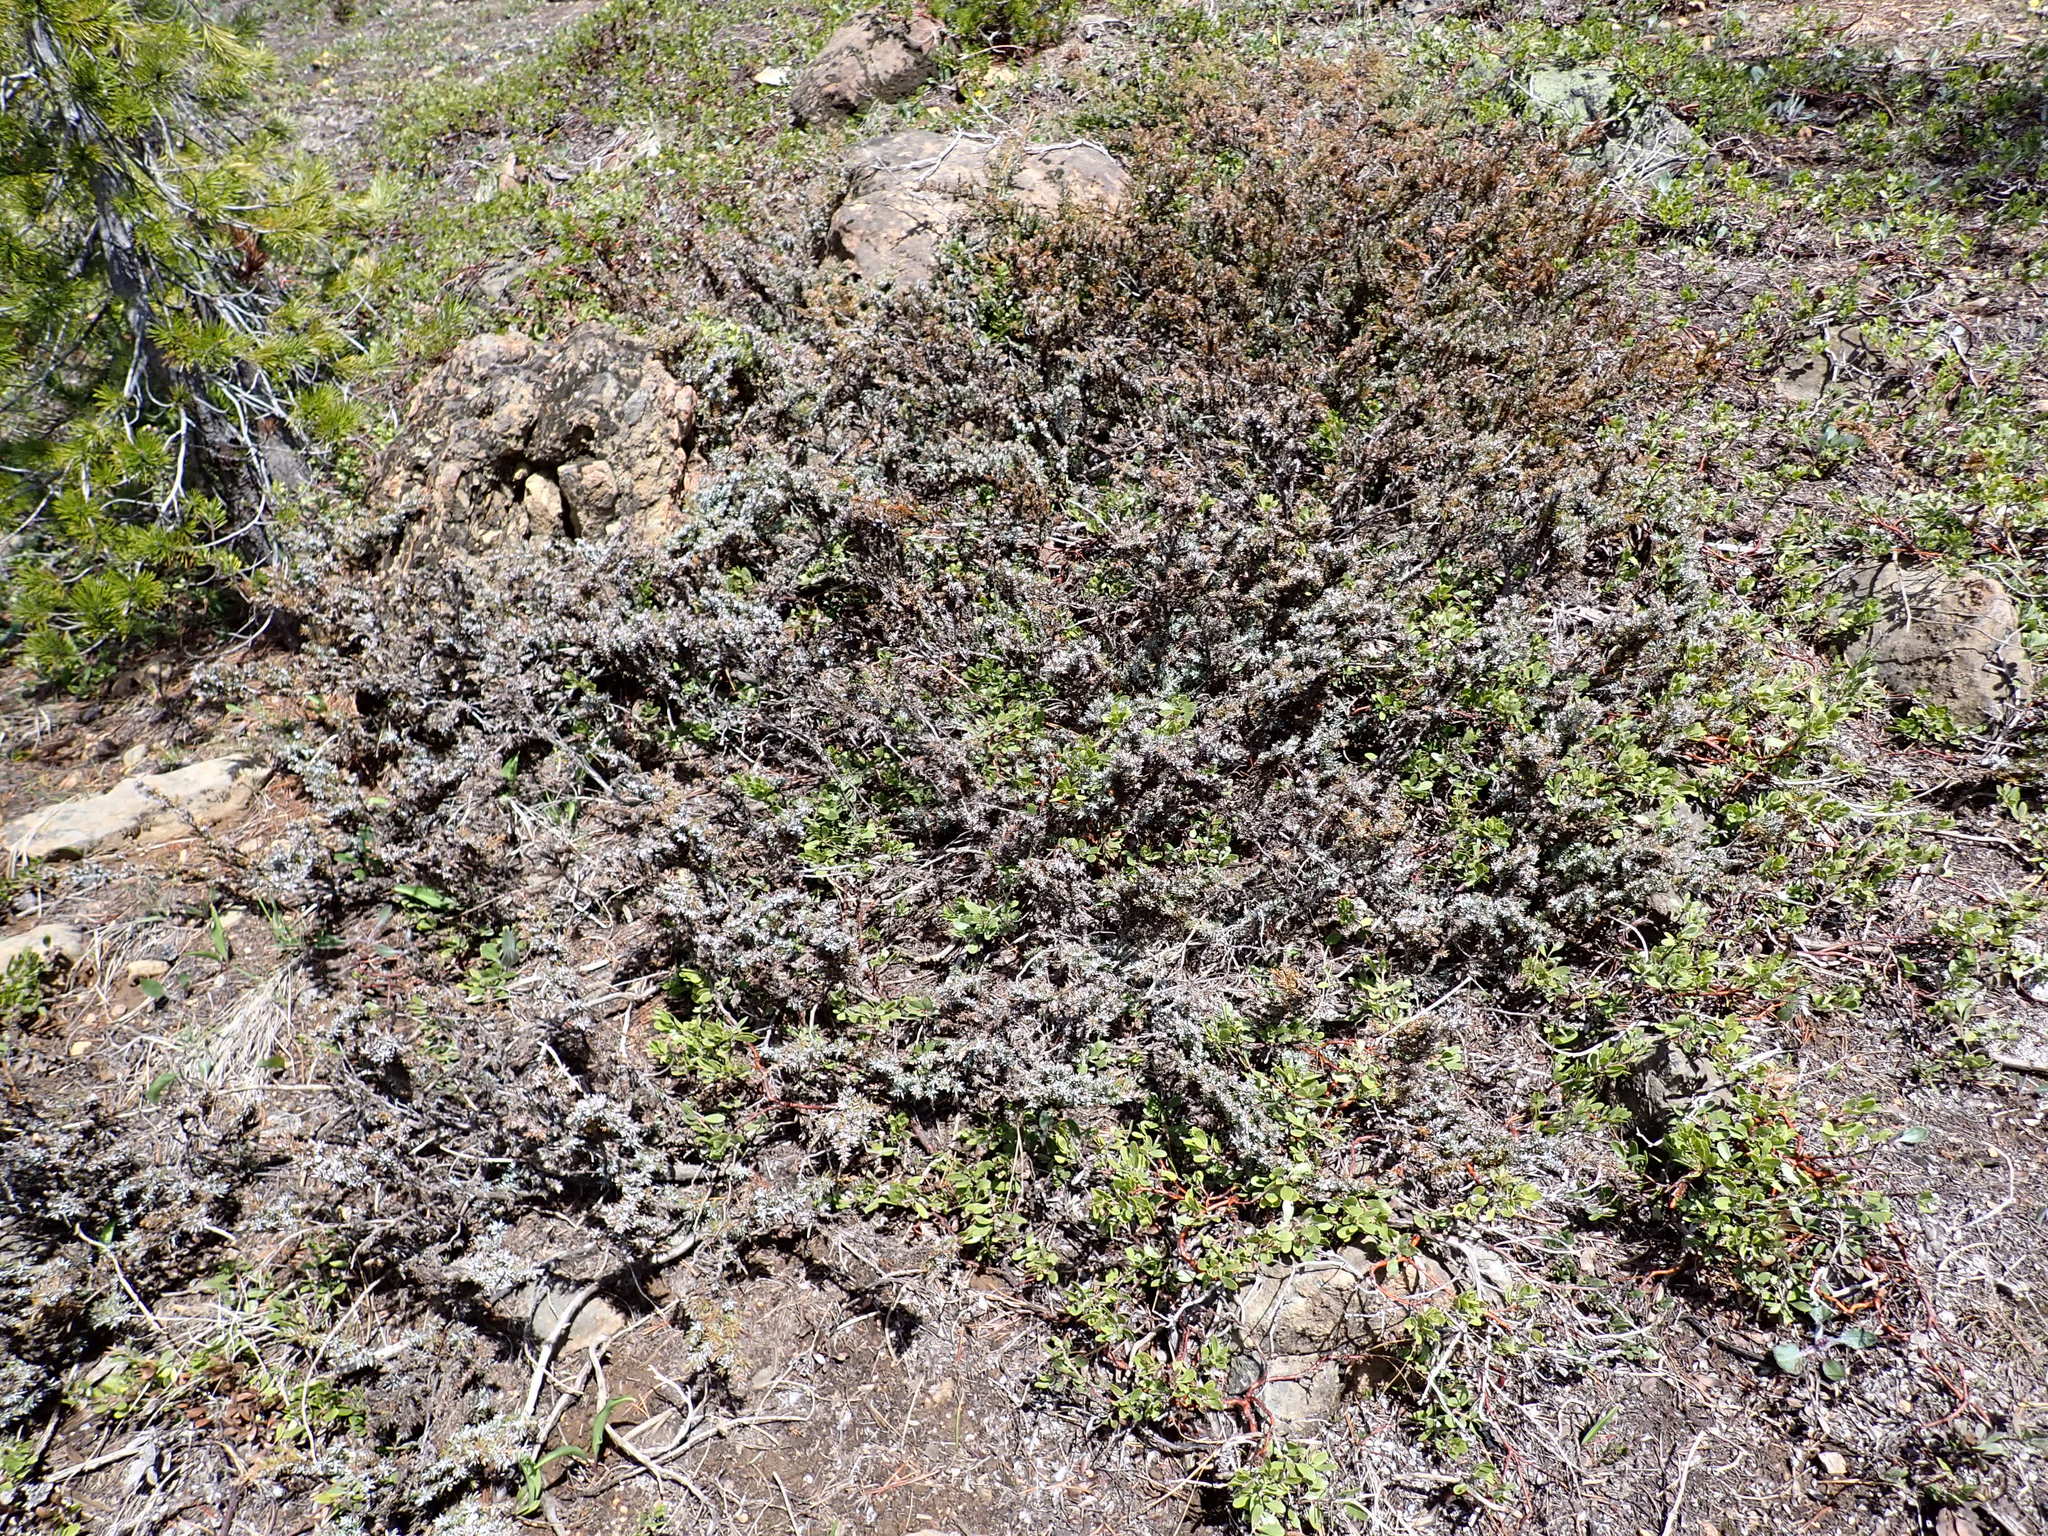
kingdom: Plantae
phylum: Tracheophyta
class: Pinopsida
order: Pinales
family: Cupressaceae
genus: Juniperus
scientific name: Juniperus communis
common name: Common juniper
